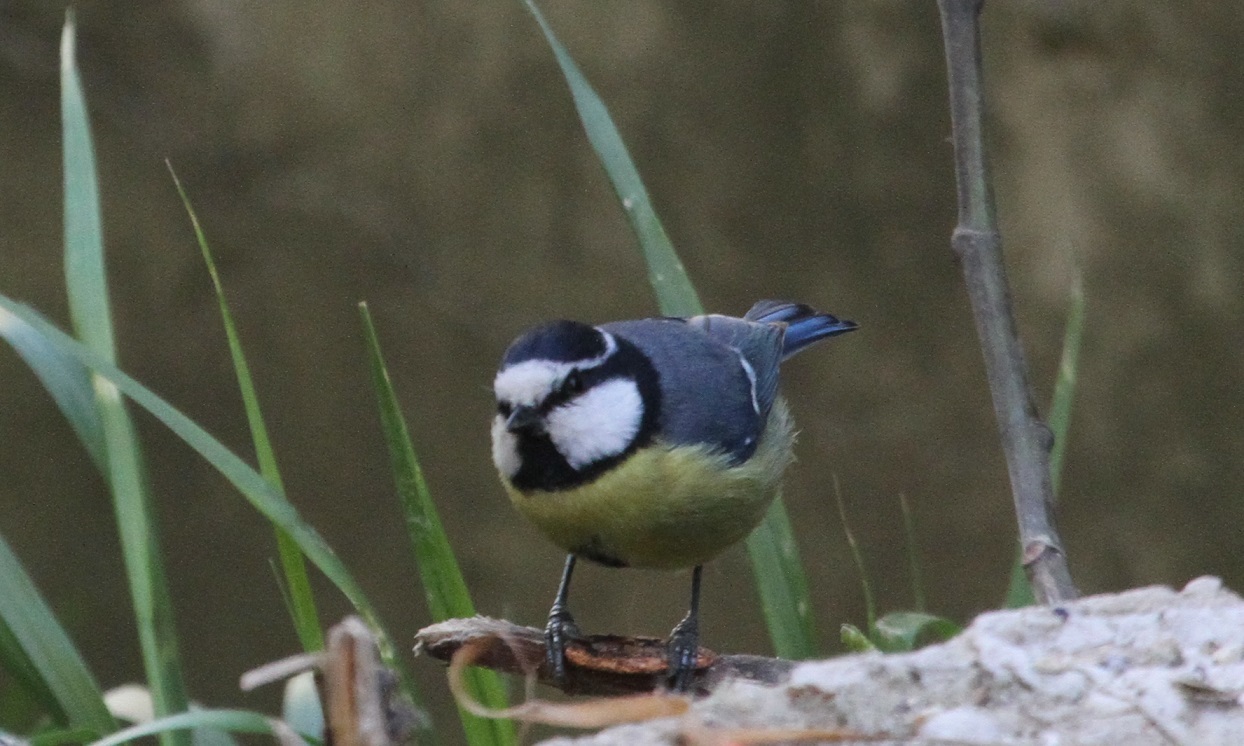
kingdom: Animalia
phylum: Chordata
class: Aves
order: Passeriformes
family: Paridae
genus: Cyanistes
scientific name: Cyanistes teneriffae
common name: African blue tit
